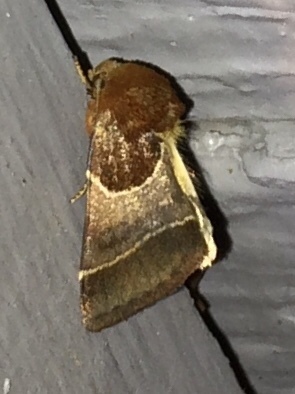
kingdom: Animalia
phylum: Arthropoda
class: Insecta
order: Lepidoptera
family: Noctuidae
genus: Schinia
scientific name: Schinia arcigera
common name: Arcigera flower moth
